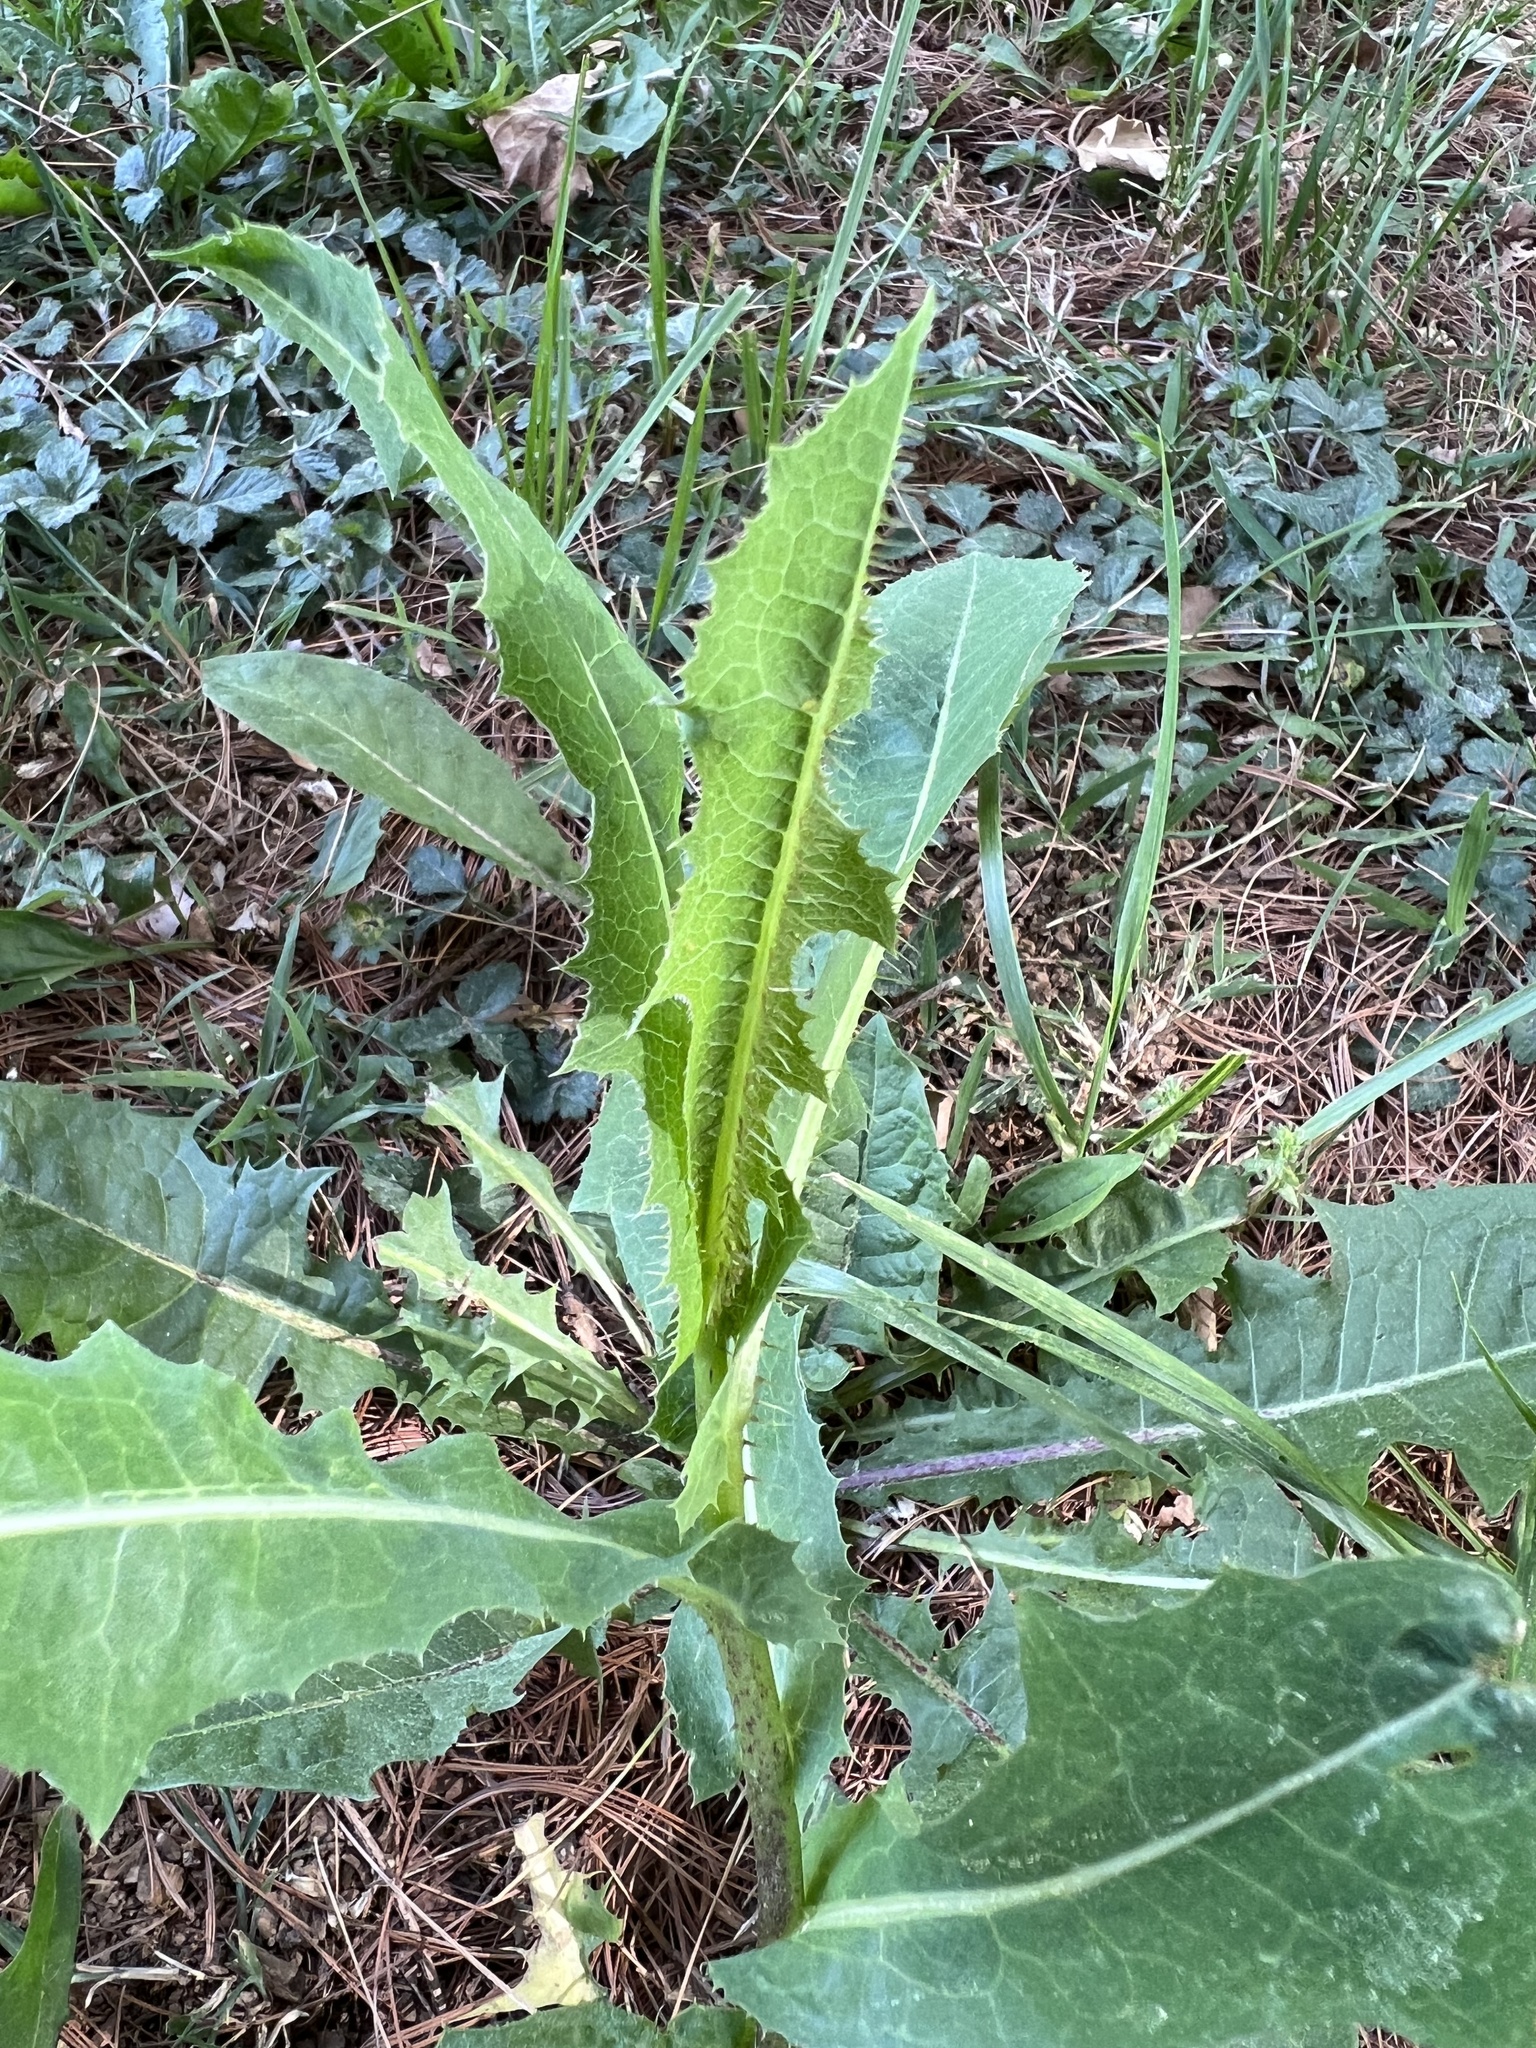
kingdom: Plantae
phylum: Tracheophyta
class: Magnoliopsida
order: Asterales
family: Asteraceae
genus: Lactuca
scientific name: Lactuca serriola
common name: Prickly lettuce
